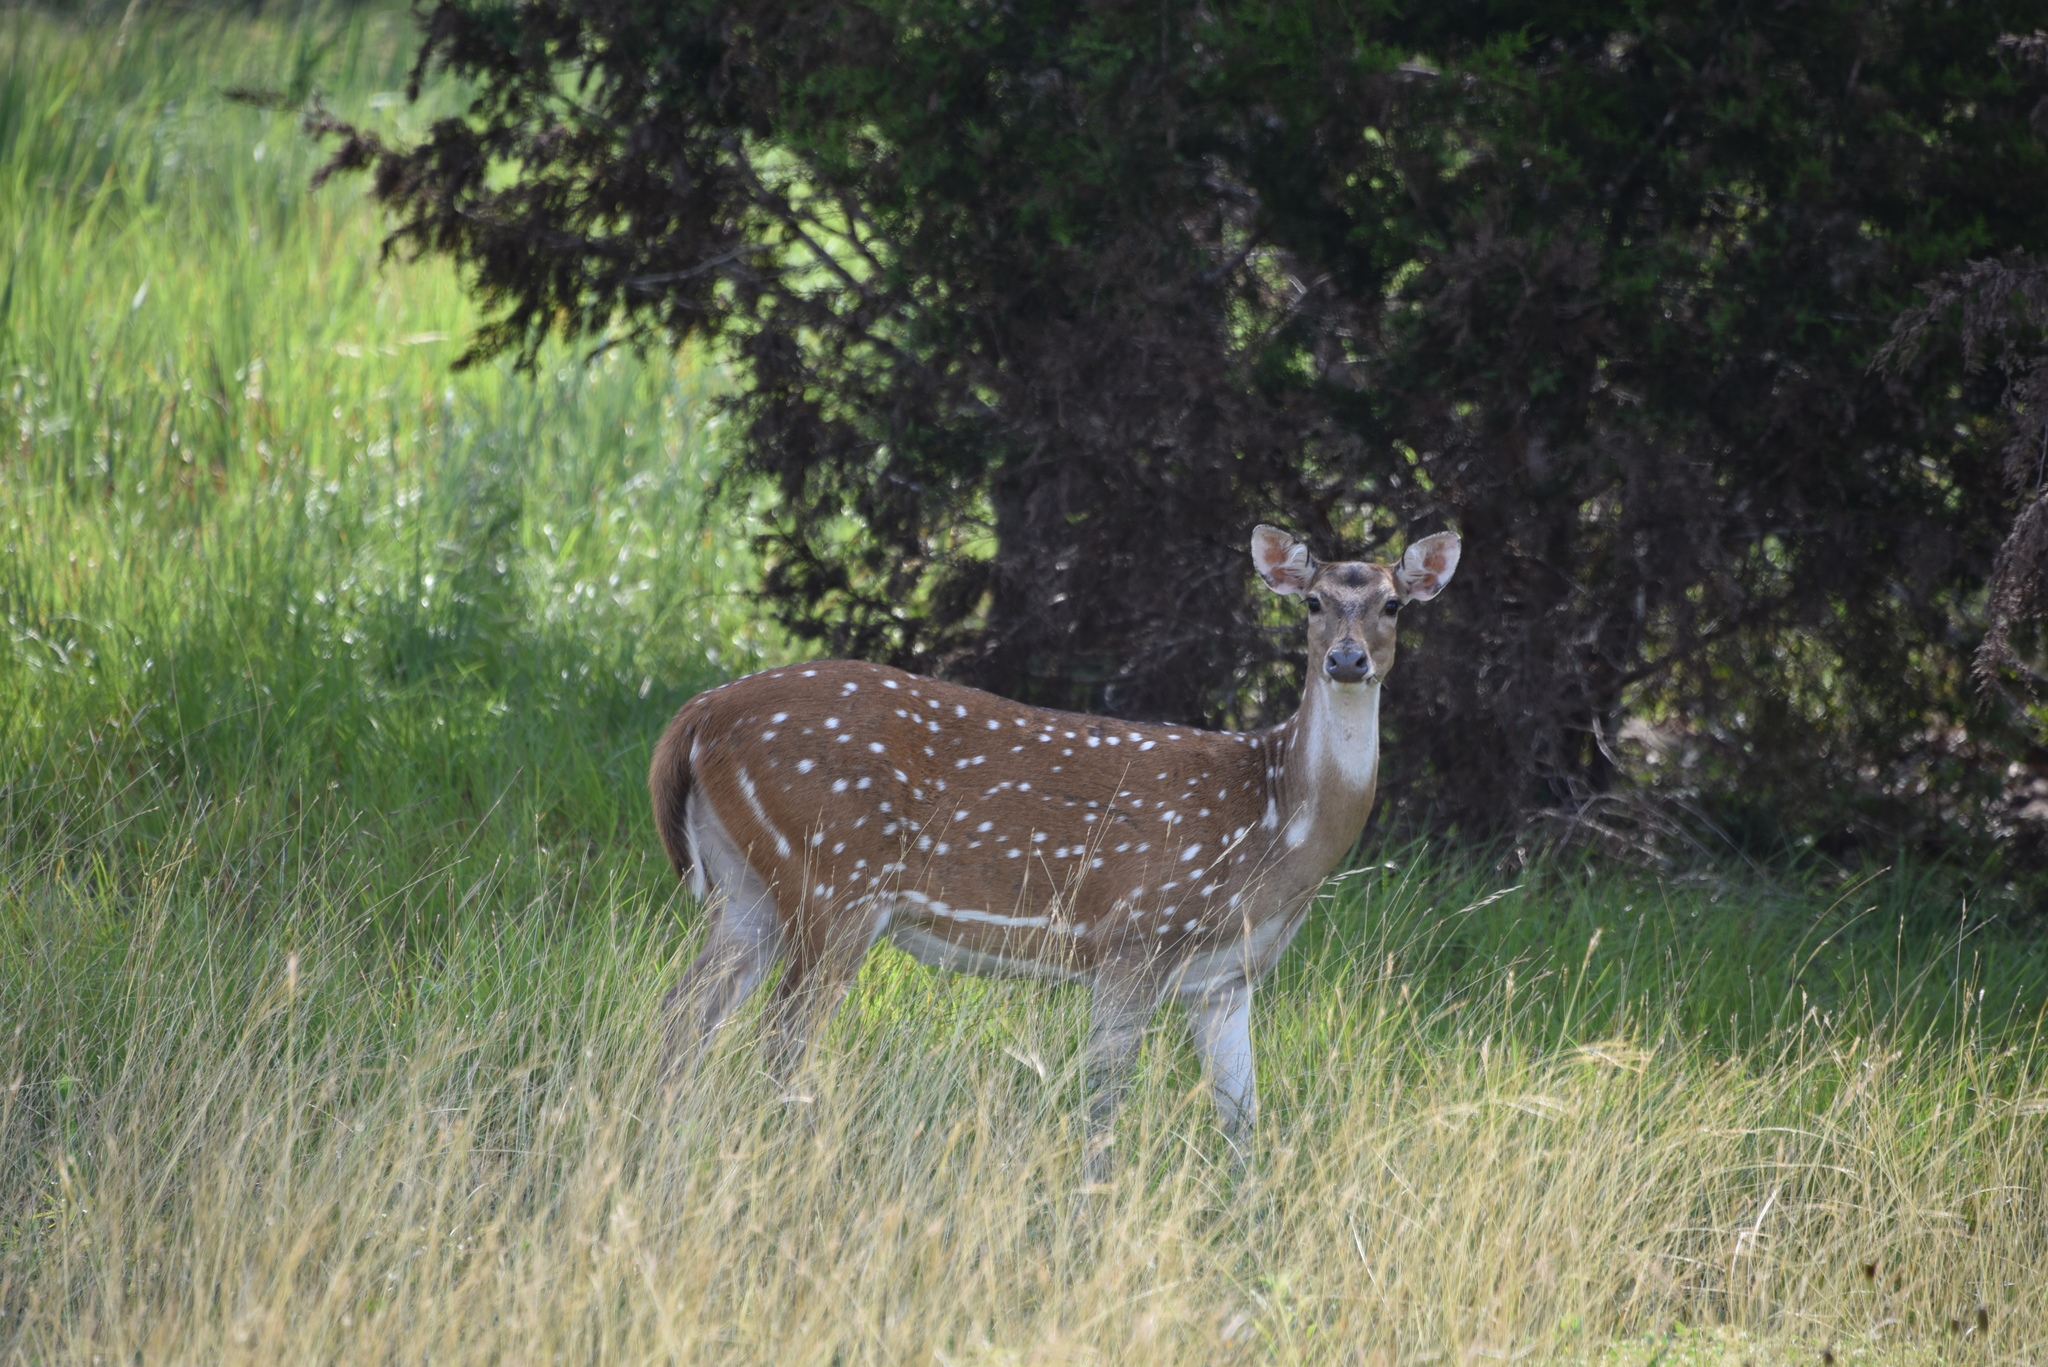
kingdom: Animalia
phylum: Chordata
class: Mammalia
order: Artiodactyla
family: Cervidae
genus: Axis
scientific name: Axis axis
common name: Chital
